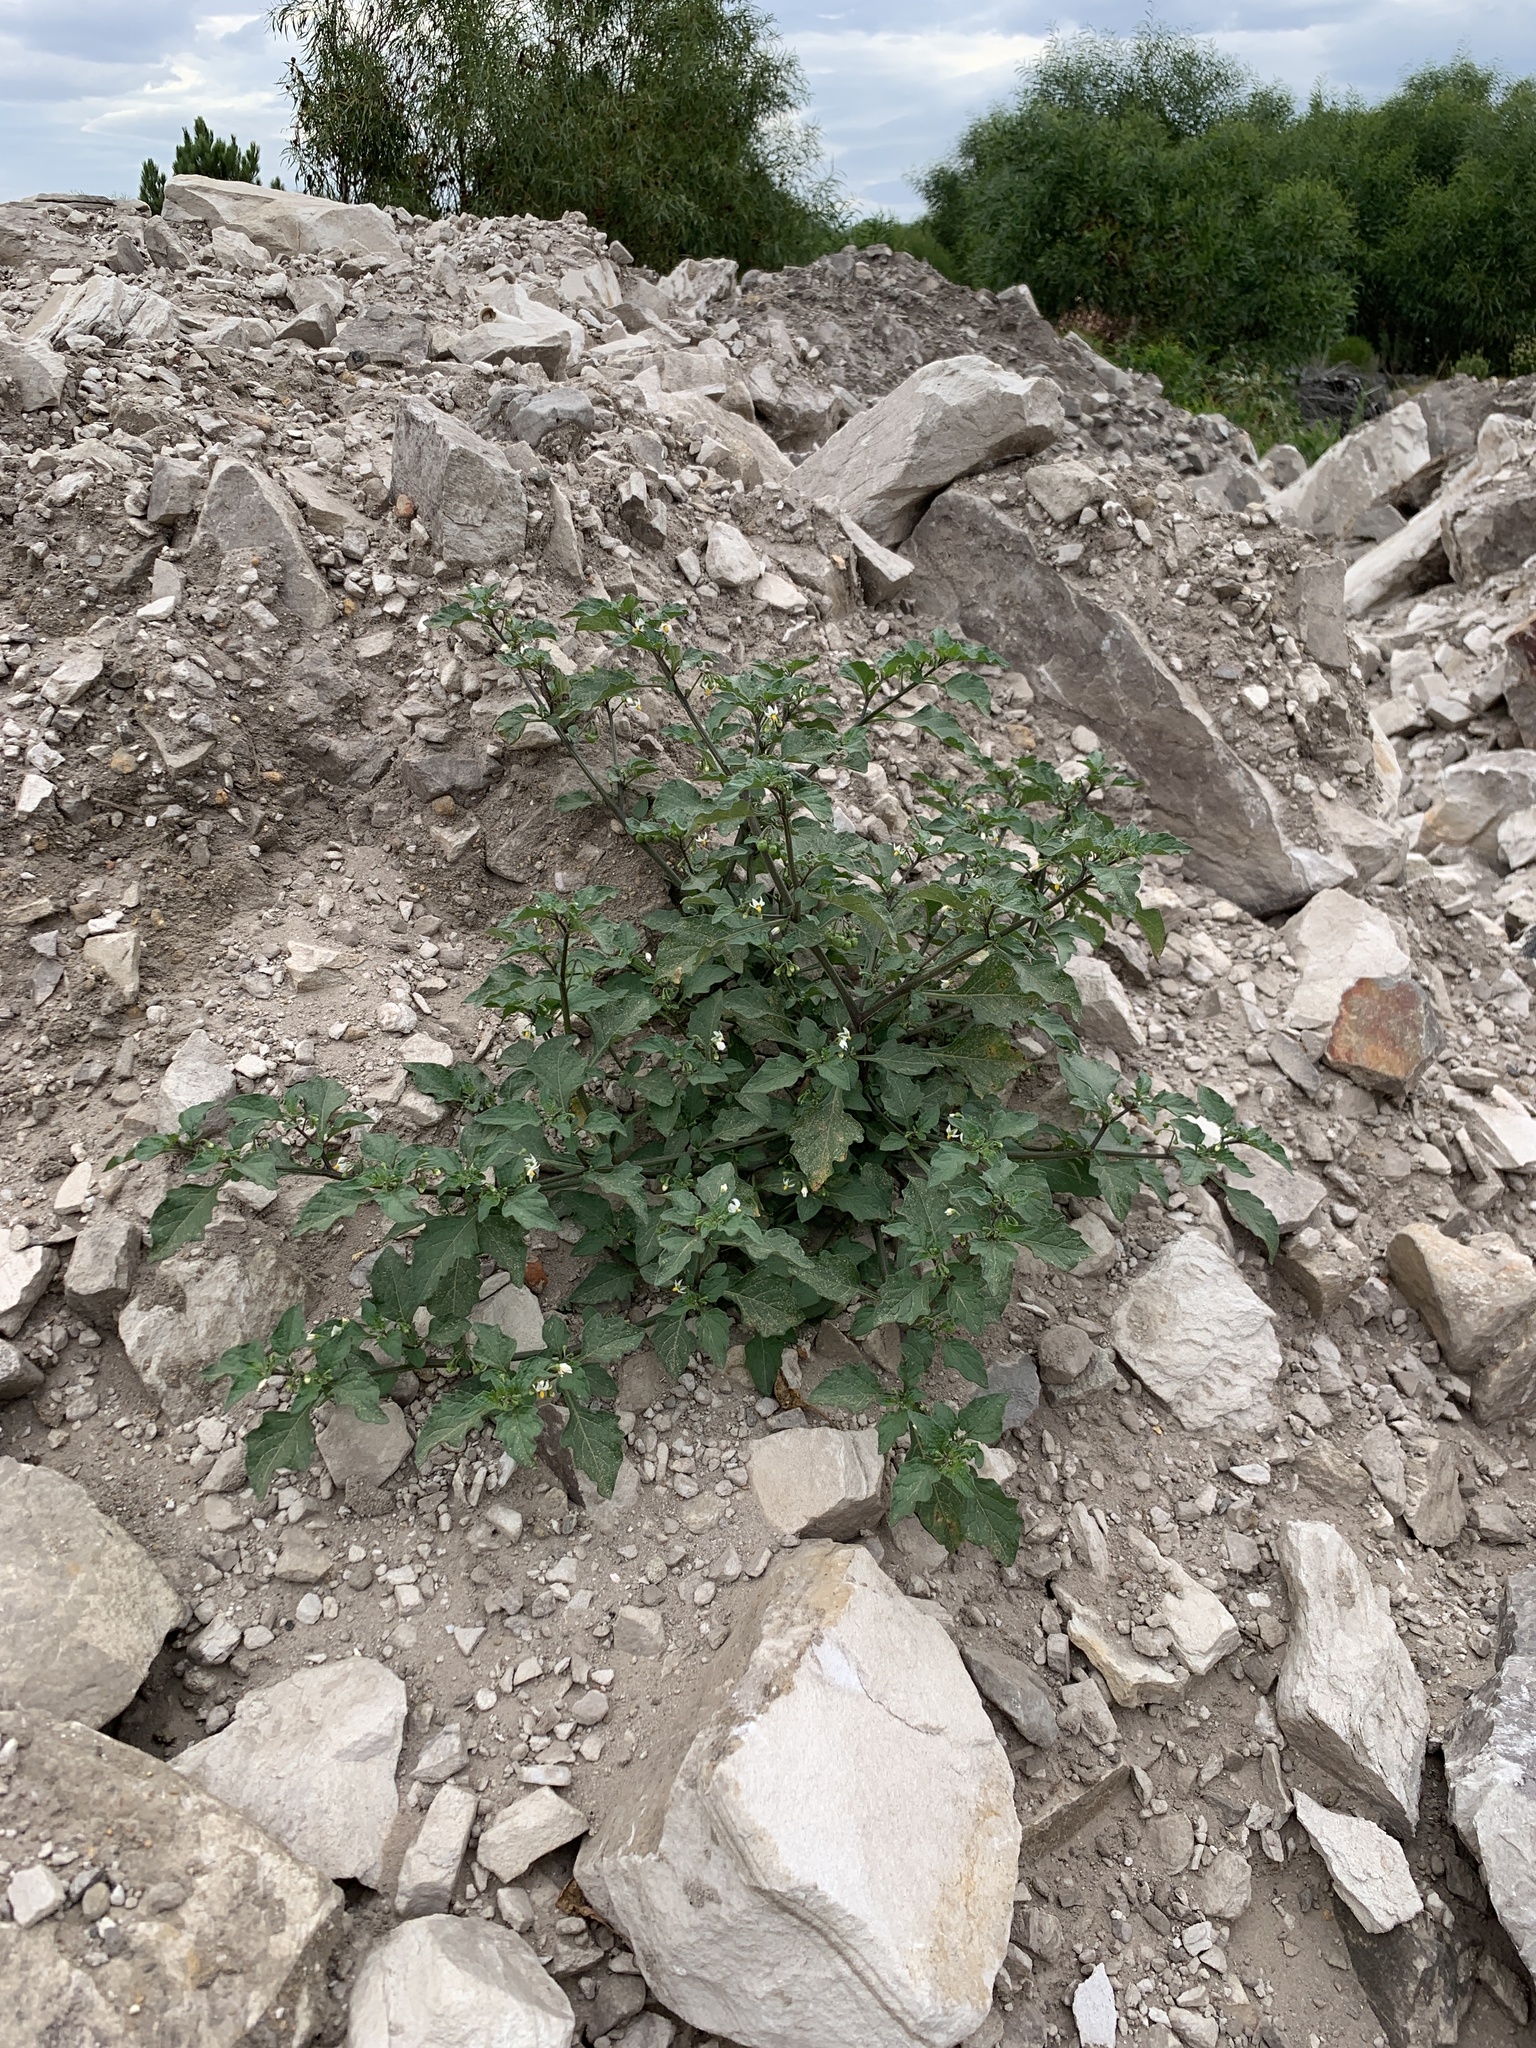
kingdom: Plantae
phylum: Tracheophyta
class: Magnoliopsida
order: Solanales
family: Solanaceae
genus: Solanum
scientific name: Solanum nigrum
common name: Black nightshade
